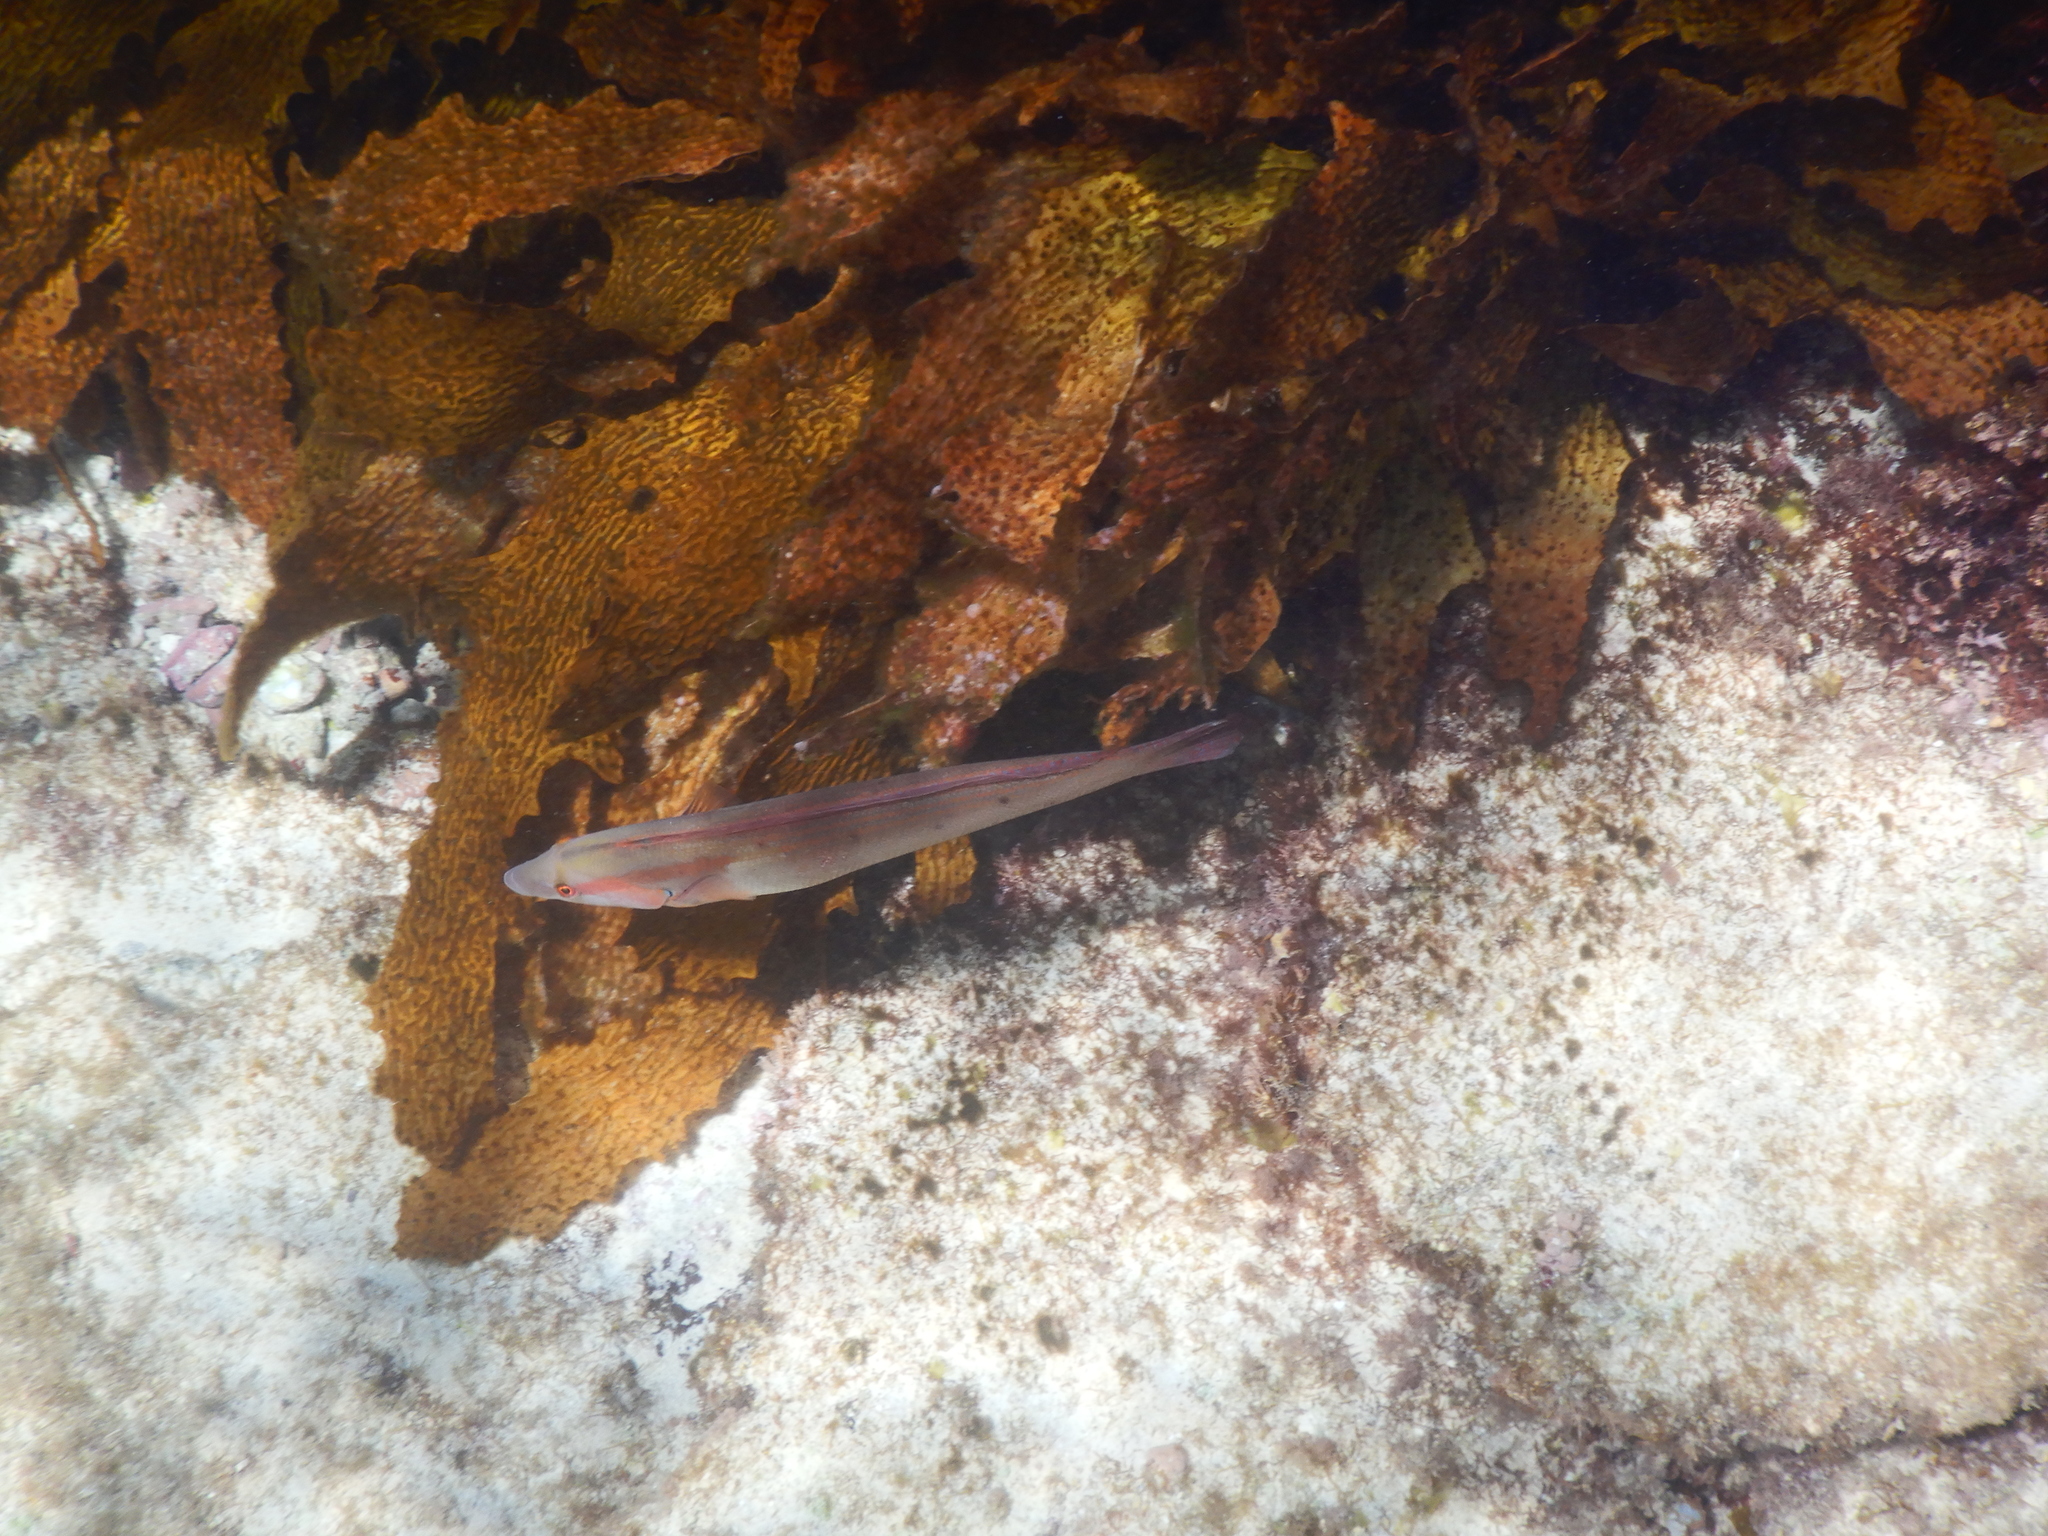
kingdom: Animalia
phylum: Chordata
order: Perciformes
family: Labridae
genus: Coris
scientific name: Coris auricularis
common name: Western king wrasse
